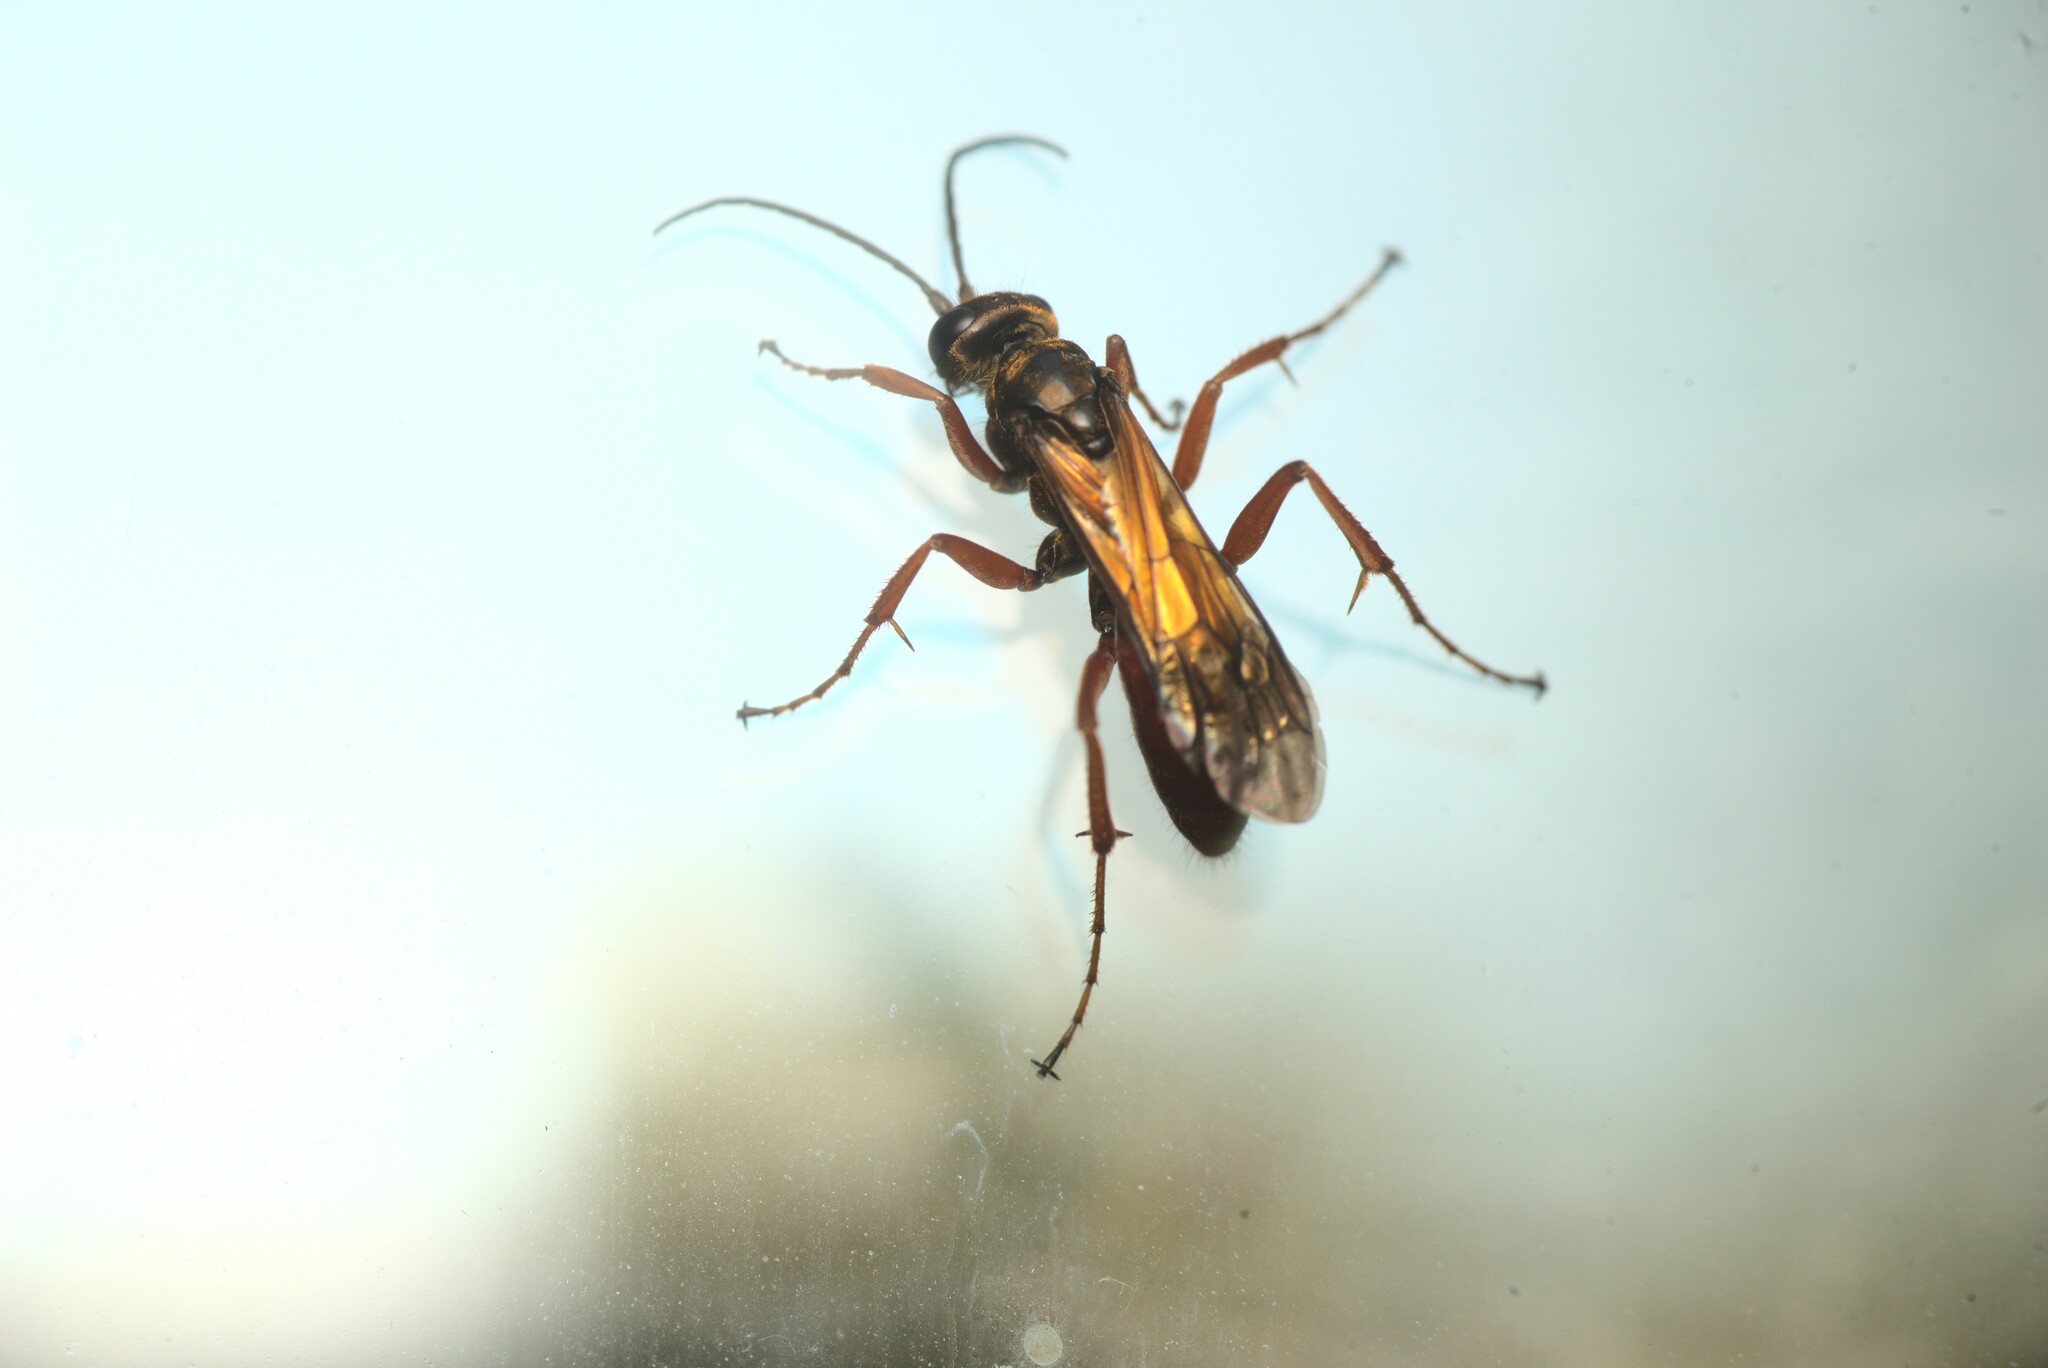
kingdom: Animalia
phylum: Arthropoda
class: Insecta
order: Hymenoptera
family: Pompilidae
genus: Priocnemis
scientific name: Priocnemis conformis
